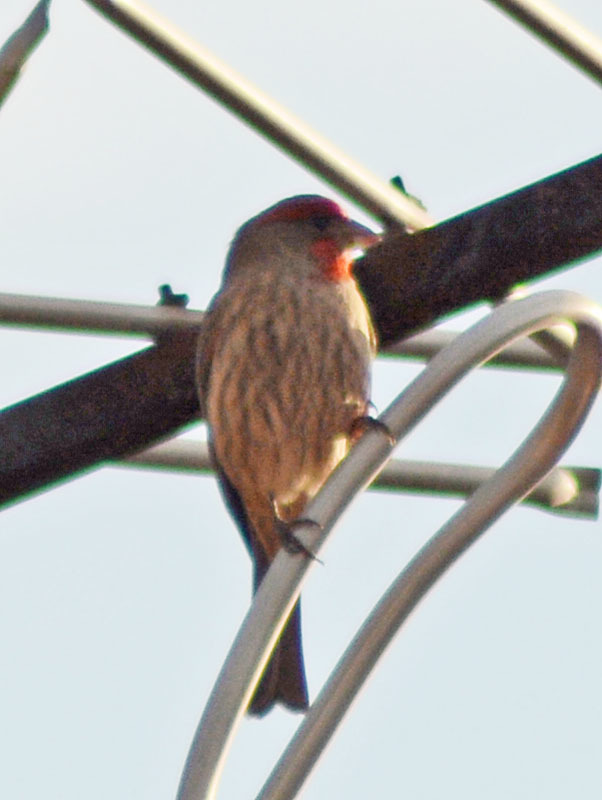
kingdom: Animalia
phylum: Chordata
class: Aves
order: Passeriformes
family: Fringillidae
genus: Haemorhous
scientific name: Haemorhous mexicanus
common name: House finch
